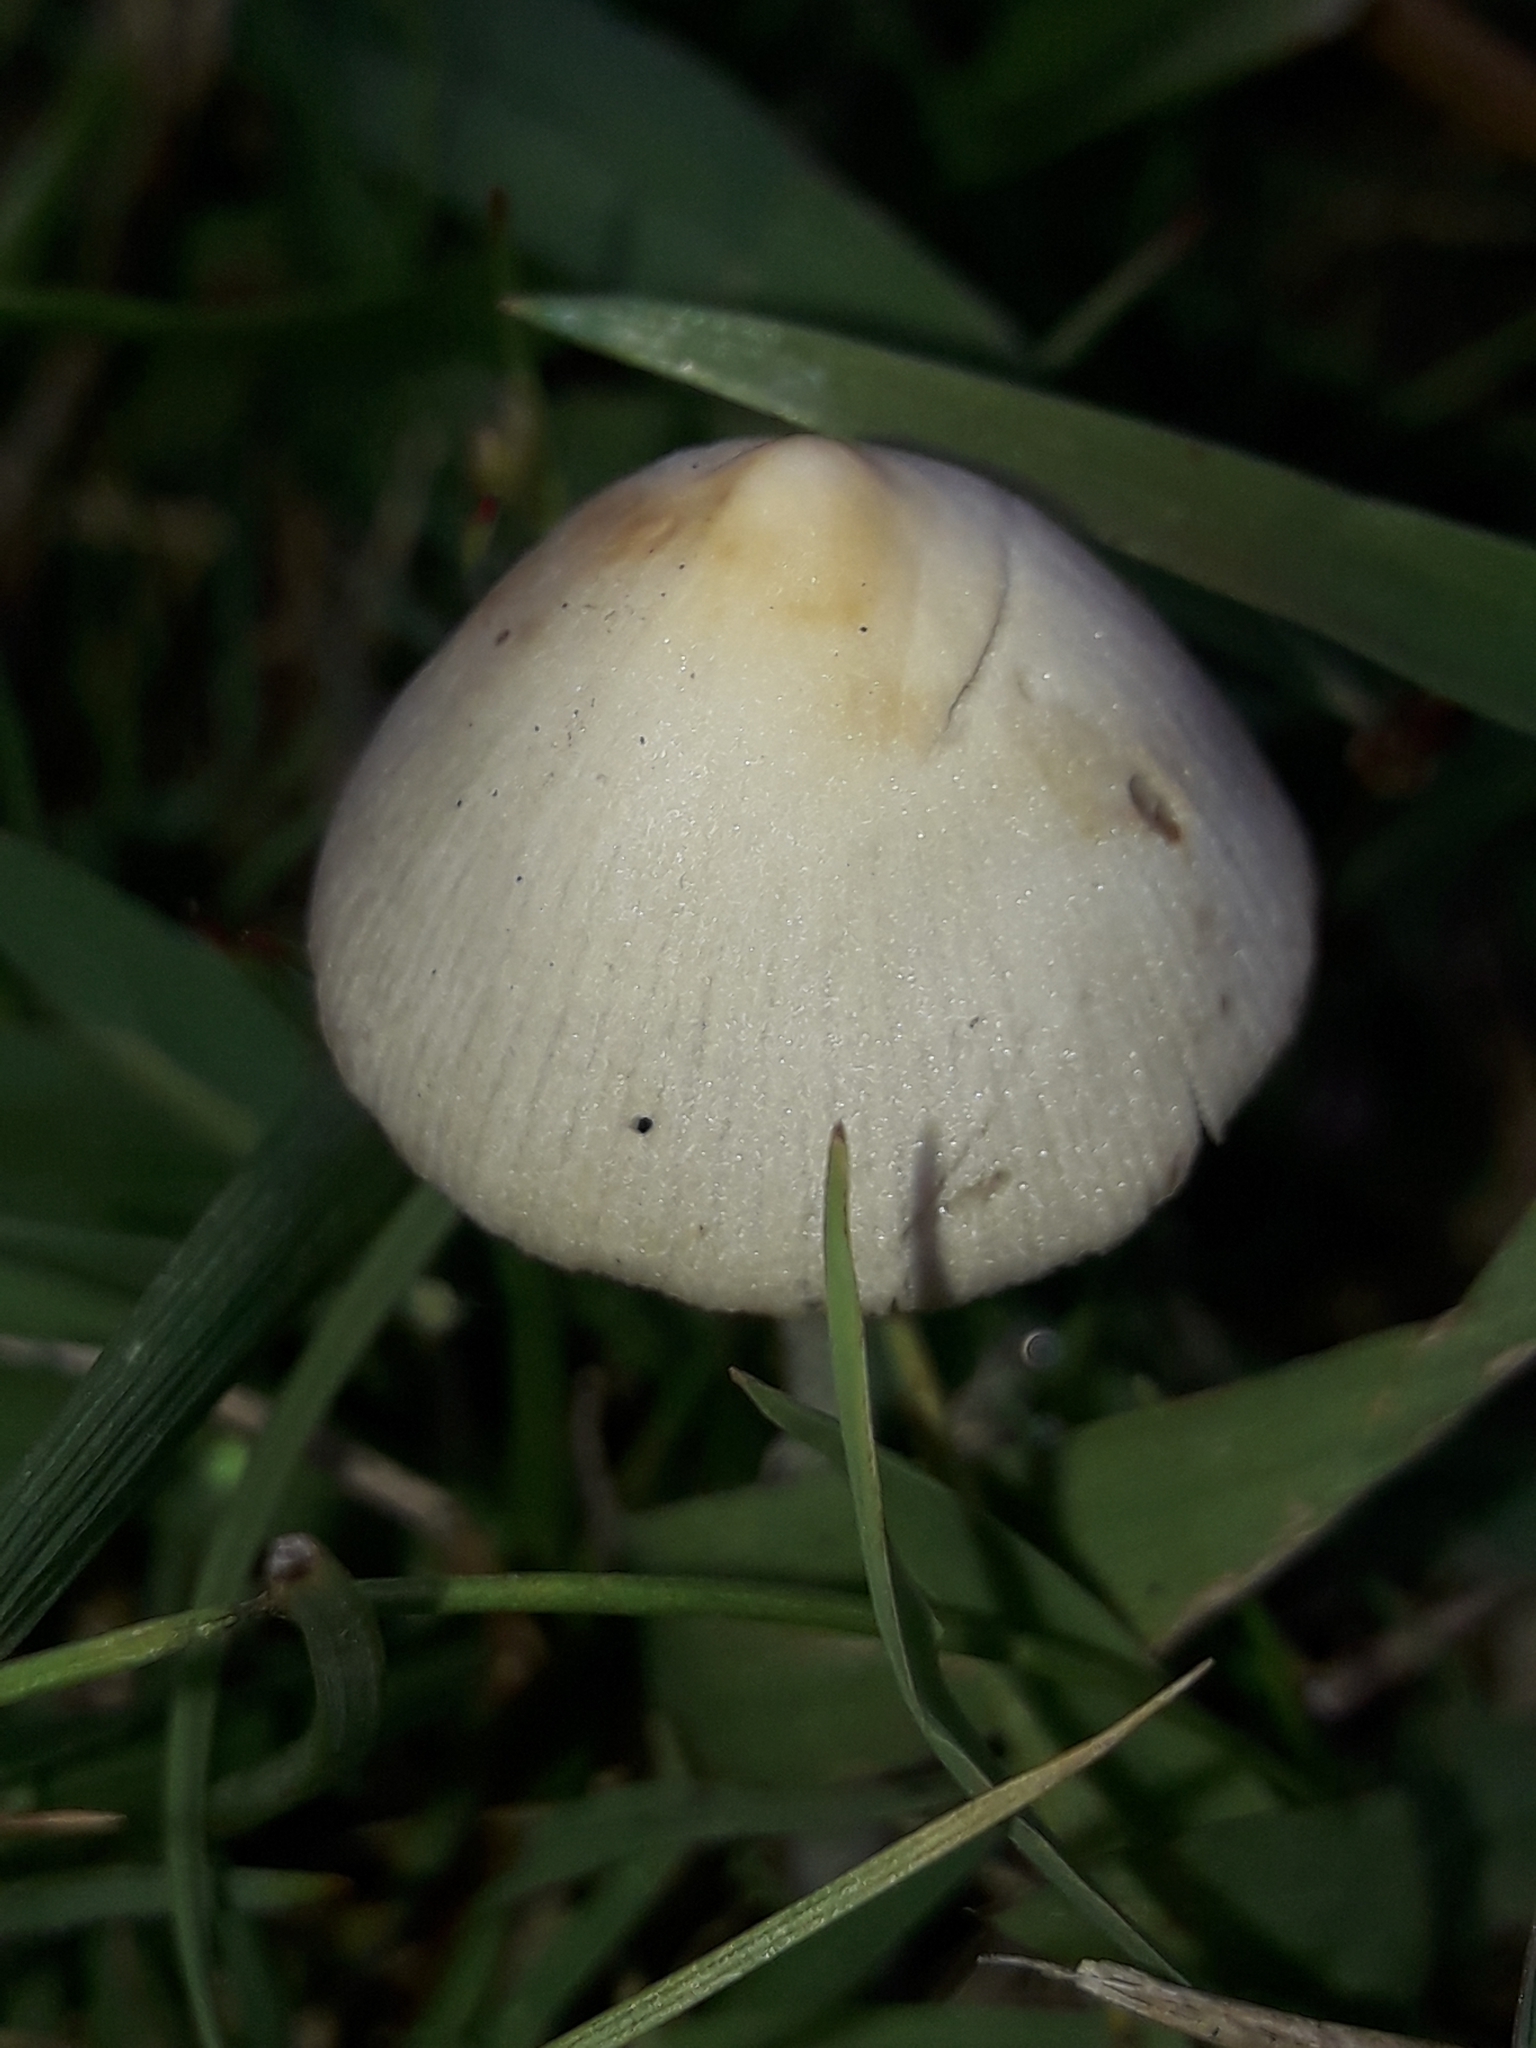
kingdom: Fungi
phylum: Basidiomycota
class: Agaricomycetes
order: Agaricales
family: Bolbitiaceae
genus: Conocybe
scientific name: Conocybe apala
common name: Milky conecap
